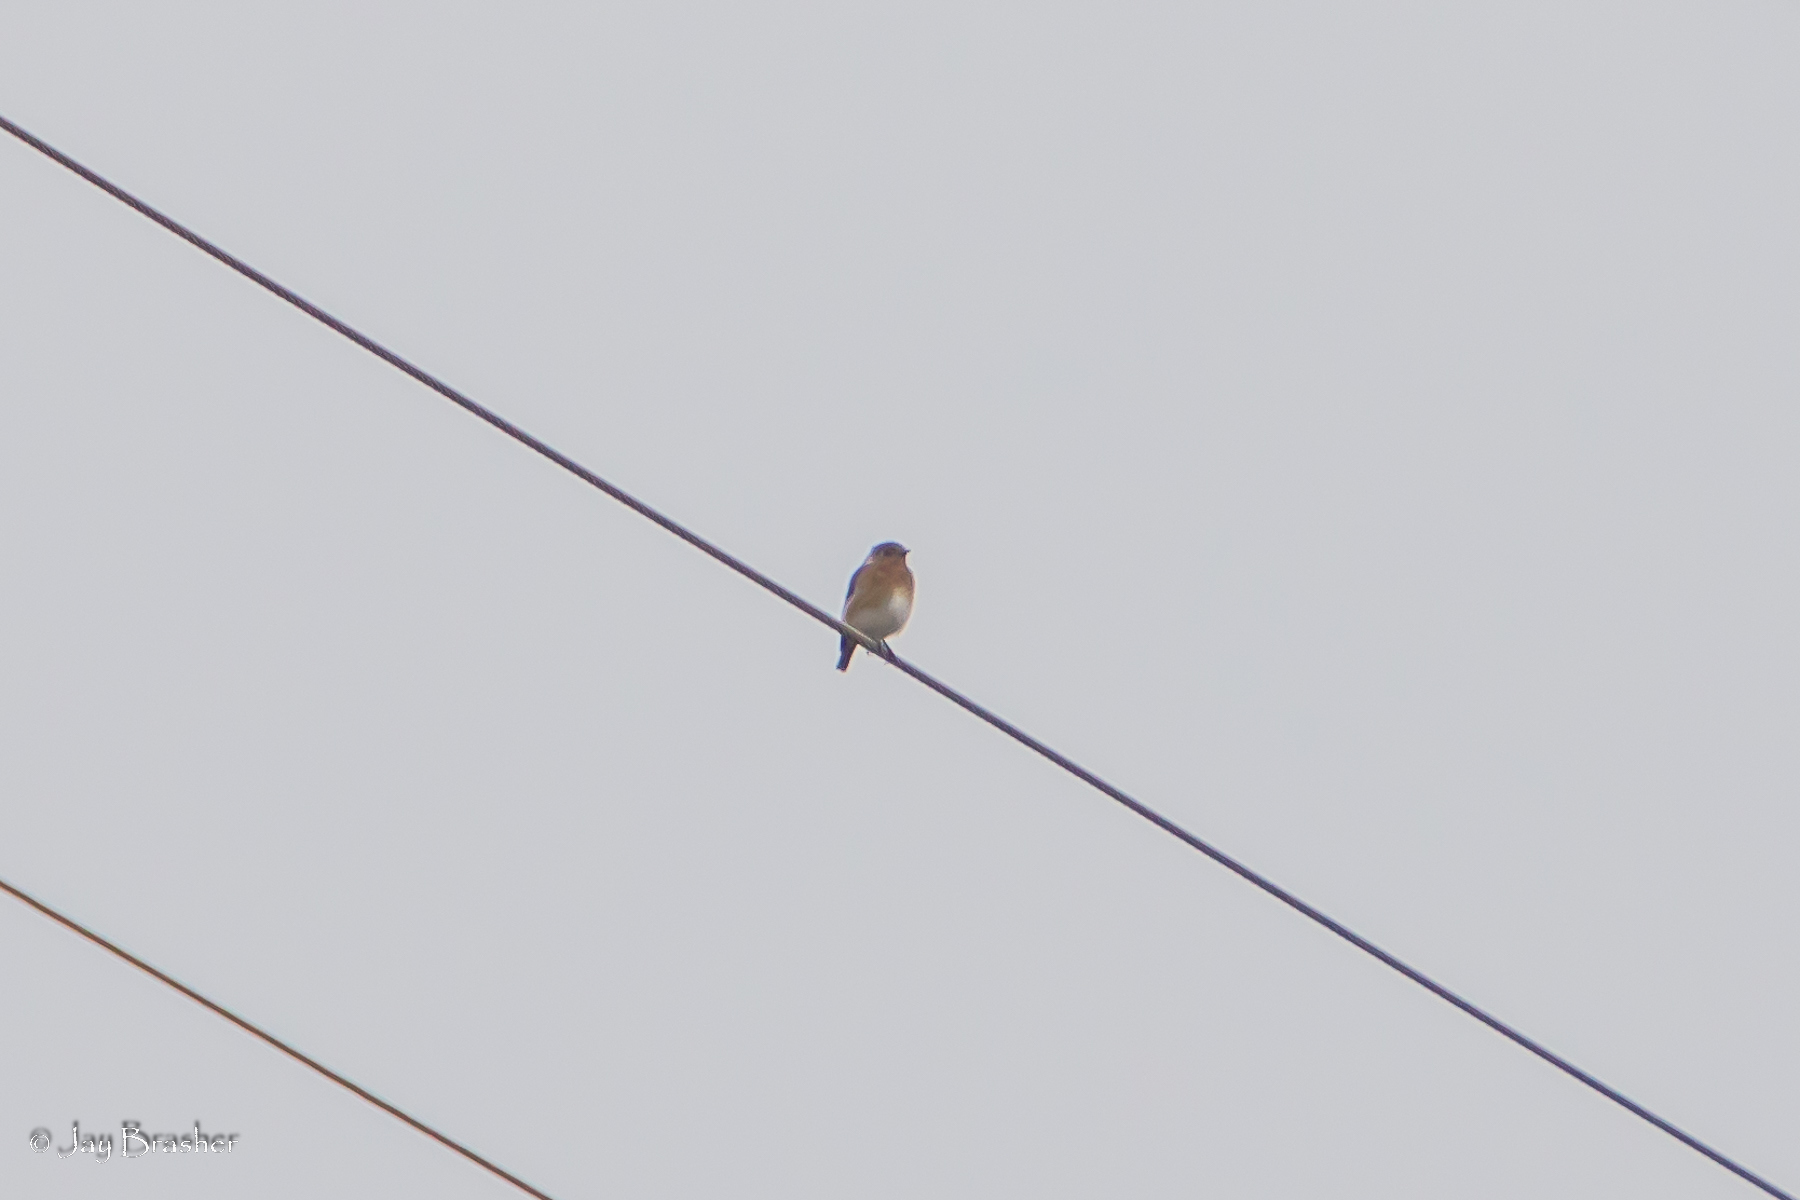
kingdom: Animalia
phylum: Chordata
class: Aves
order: Passeriformes
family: Turdidae
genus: Sialia
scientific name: Sialia sialis
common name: Eastern bluebird
